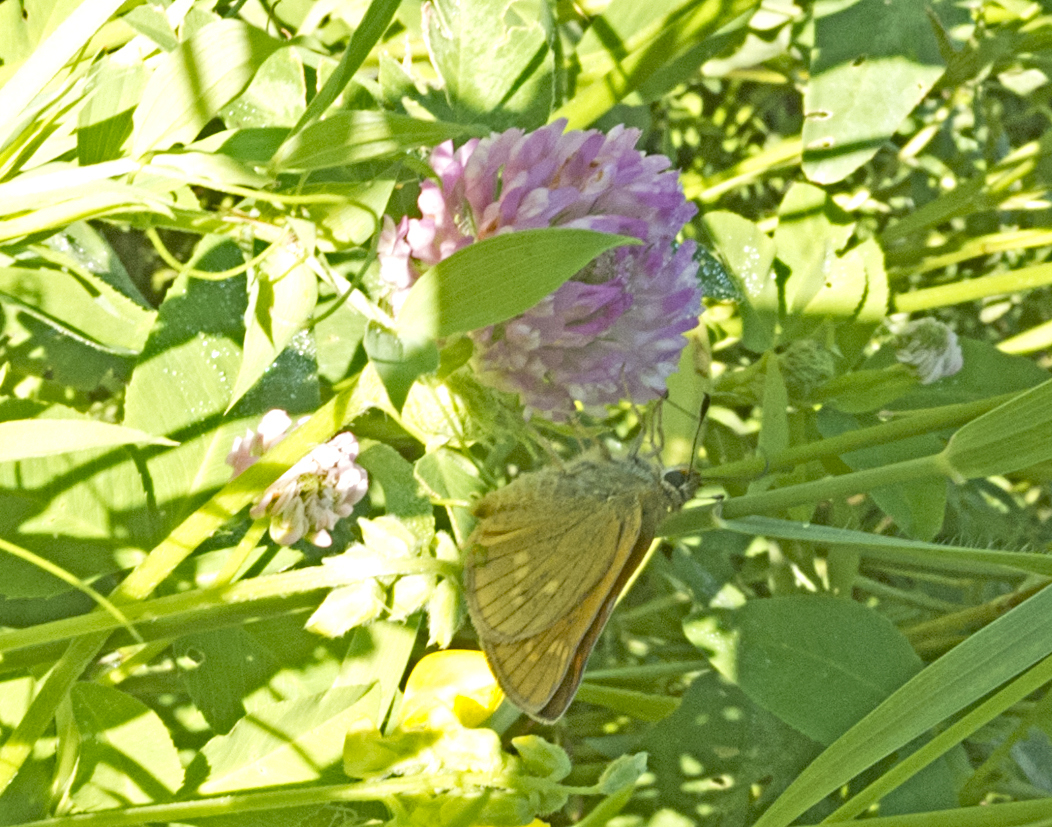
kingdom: Animalia
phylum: Arthropoda
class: Insecta
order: Lepidoptera
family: Hesperiidae
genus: Ochlodes
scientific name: Ochlodes venata
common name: Large skipper
